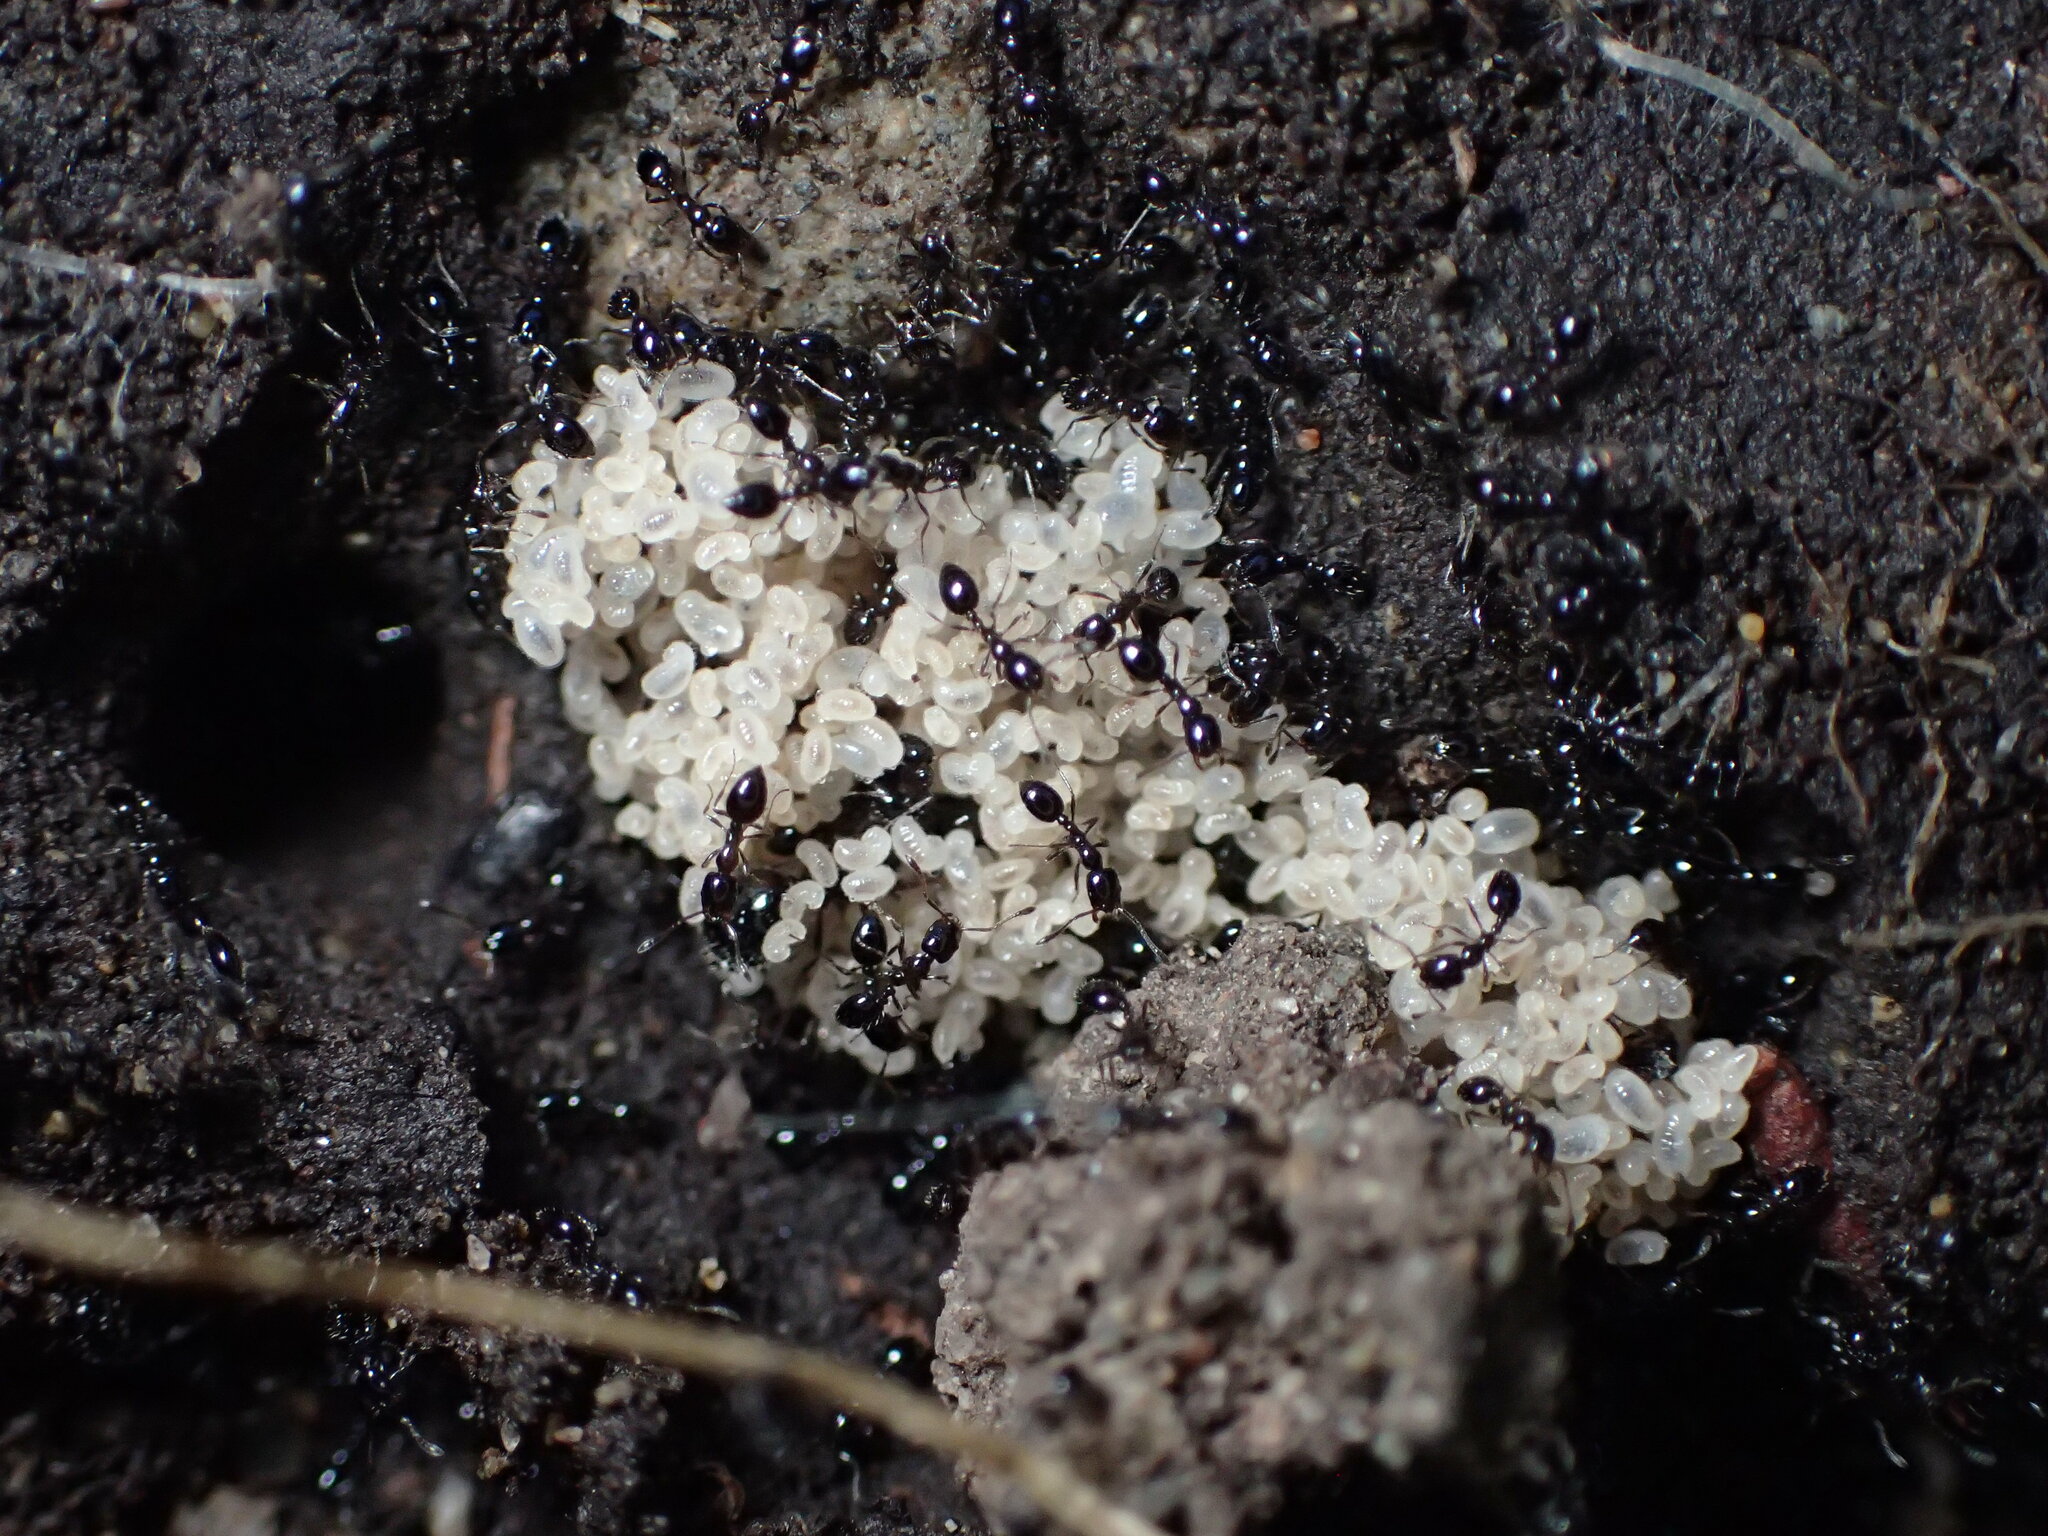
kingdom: Animalia
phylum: Arthropoda
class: Insecta
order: Hymenoptera
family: Formicidae
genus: Monomorium
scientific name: Monomorium ergatogyna
